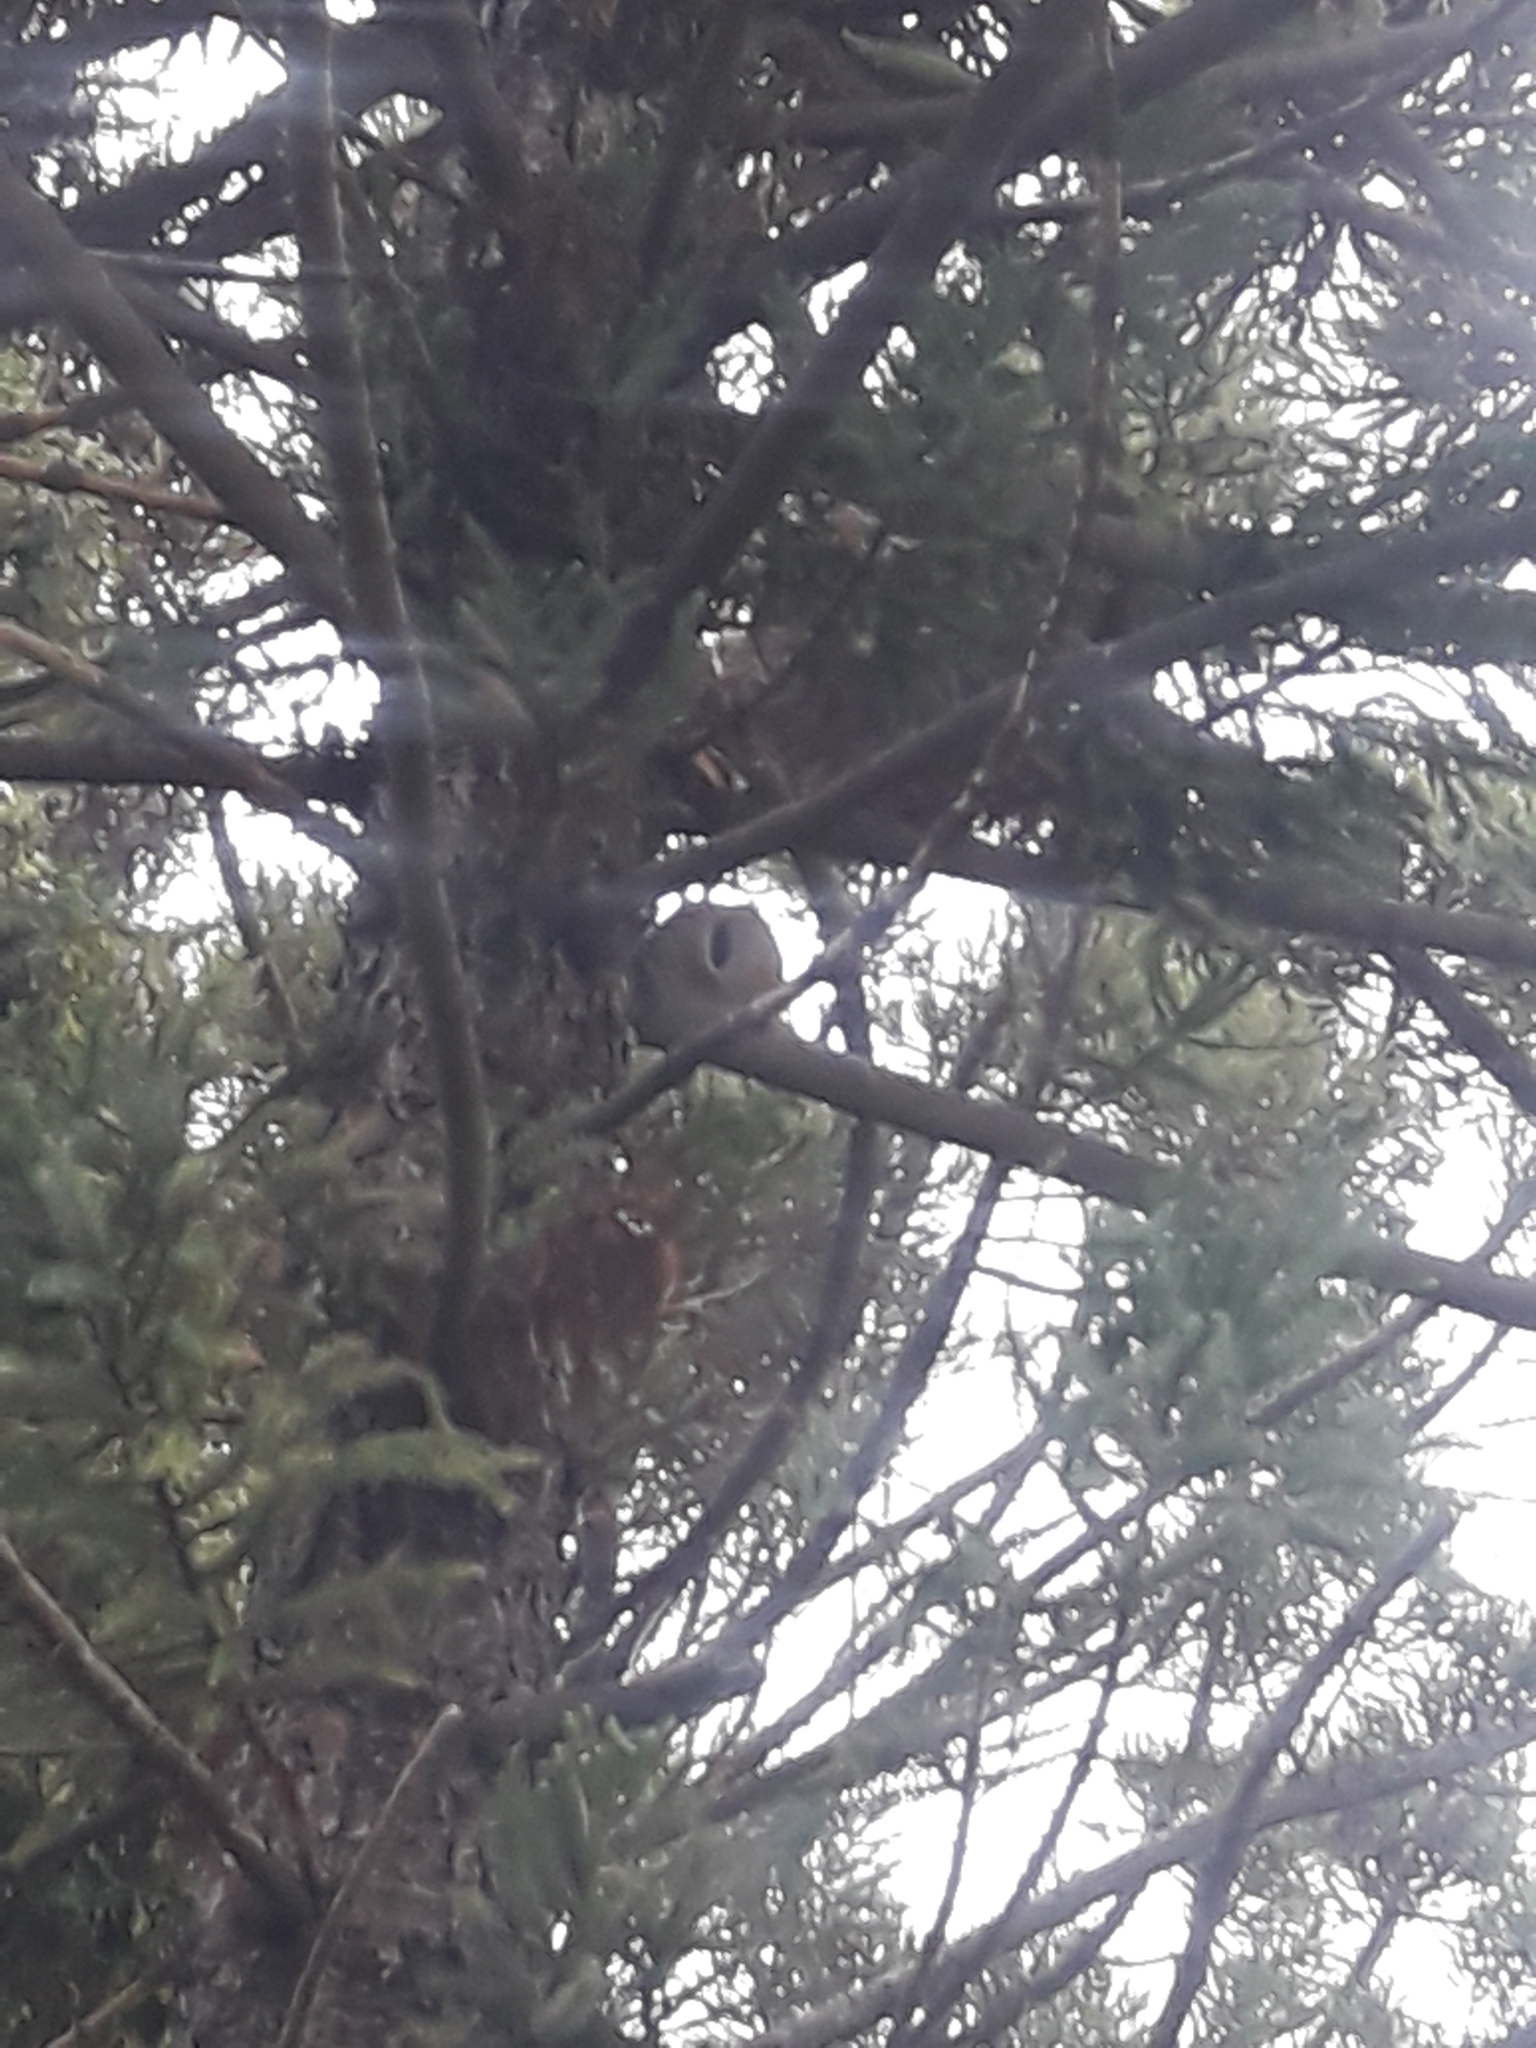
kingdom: Animalia
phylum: Chordata
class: Aves
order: Passeriformes
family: Furnariidae
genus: Furnarius
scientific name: Furnarius rufus
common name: Rufous hornero
